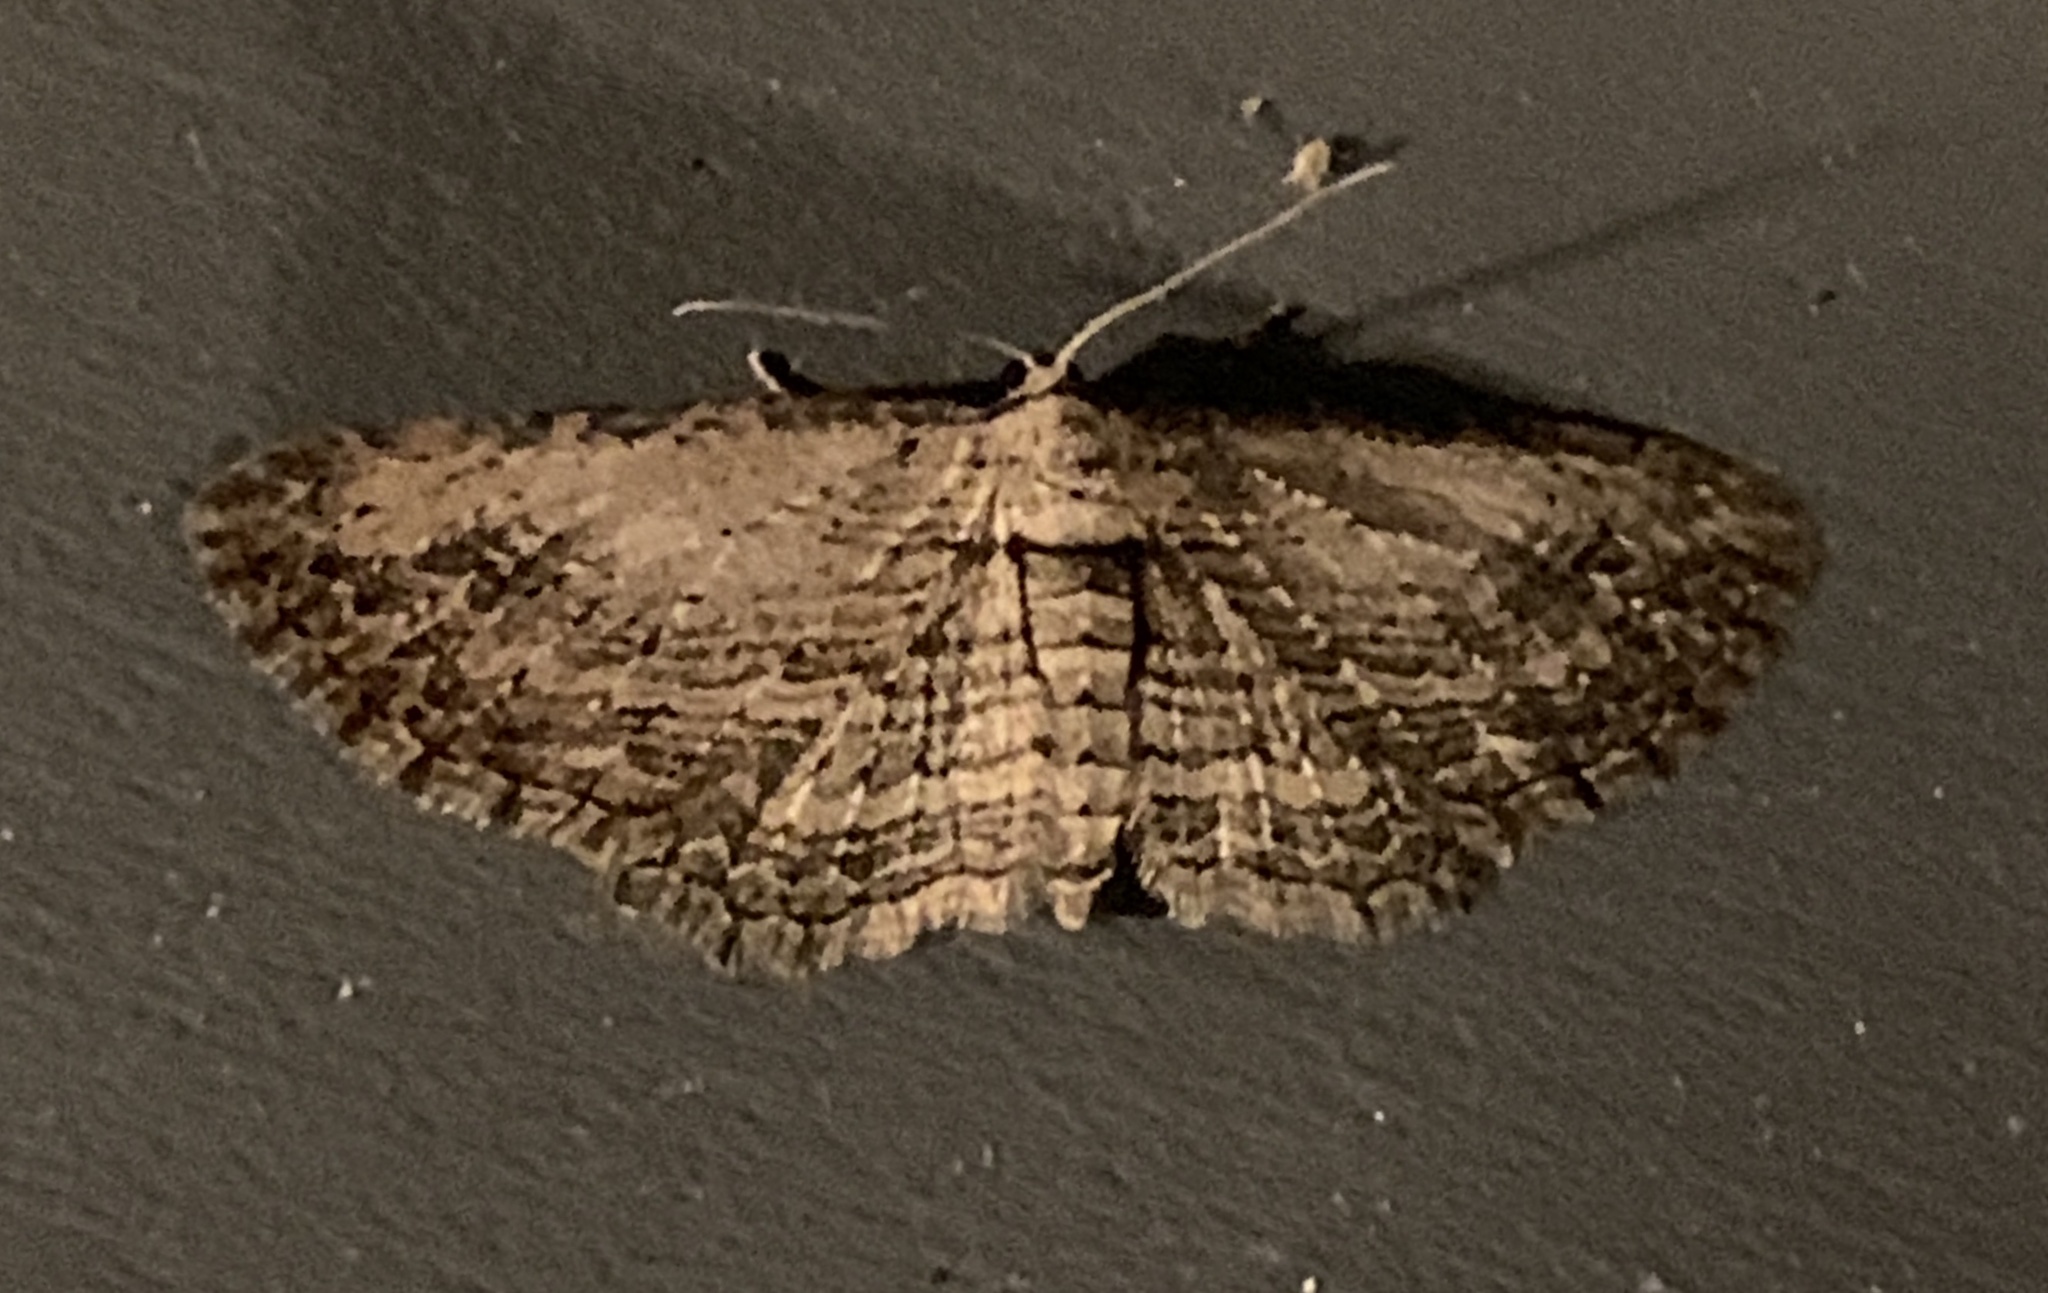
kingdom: Animalia
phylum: Arthropoda
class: Insecta
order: Lepidoptera
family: Geometridae
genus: Horisme
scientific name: Horisme intestinata
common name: Brown bark carpet
